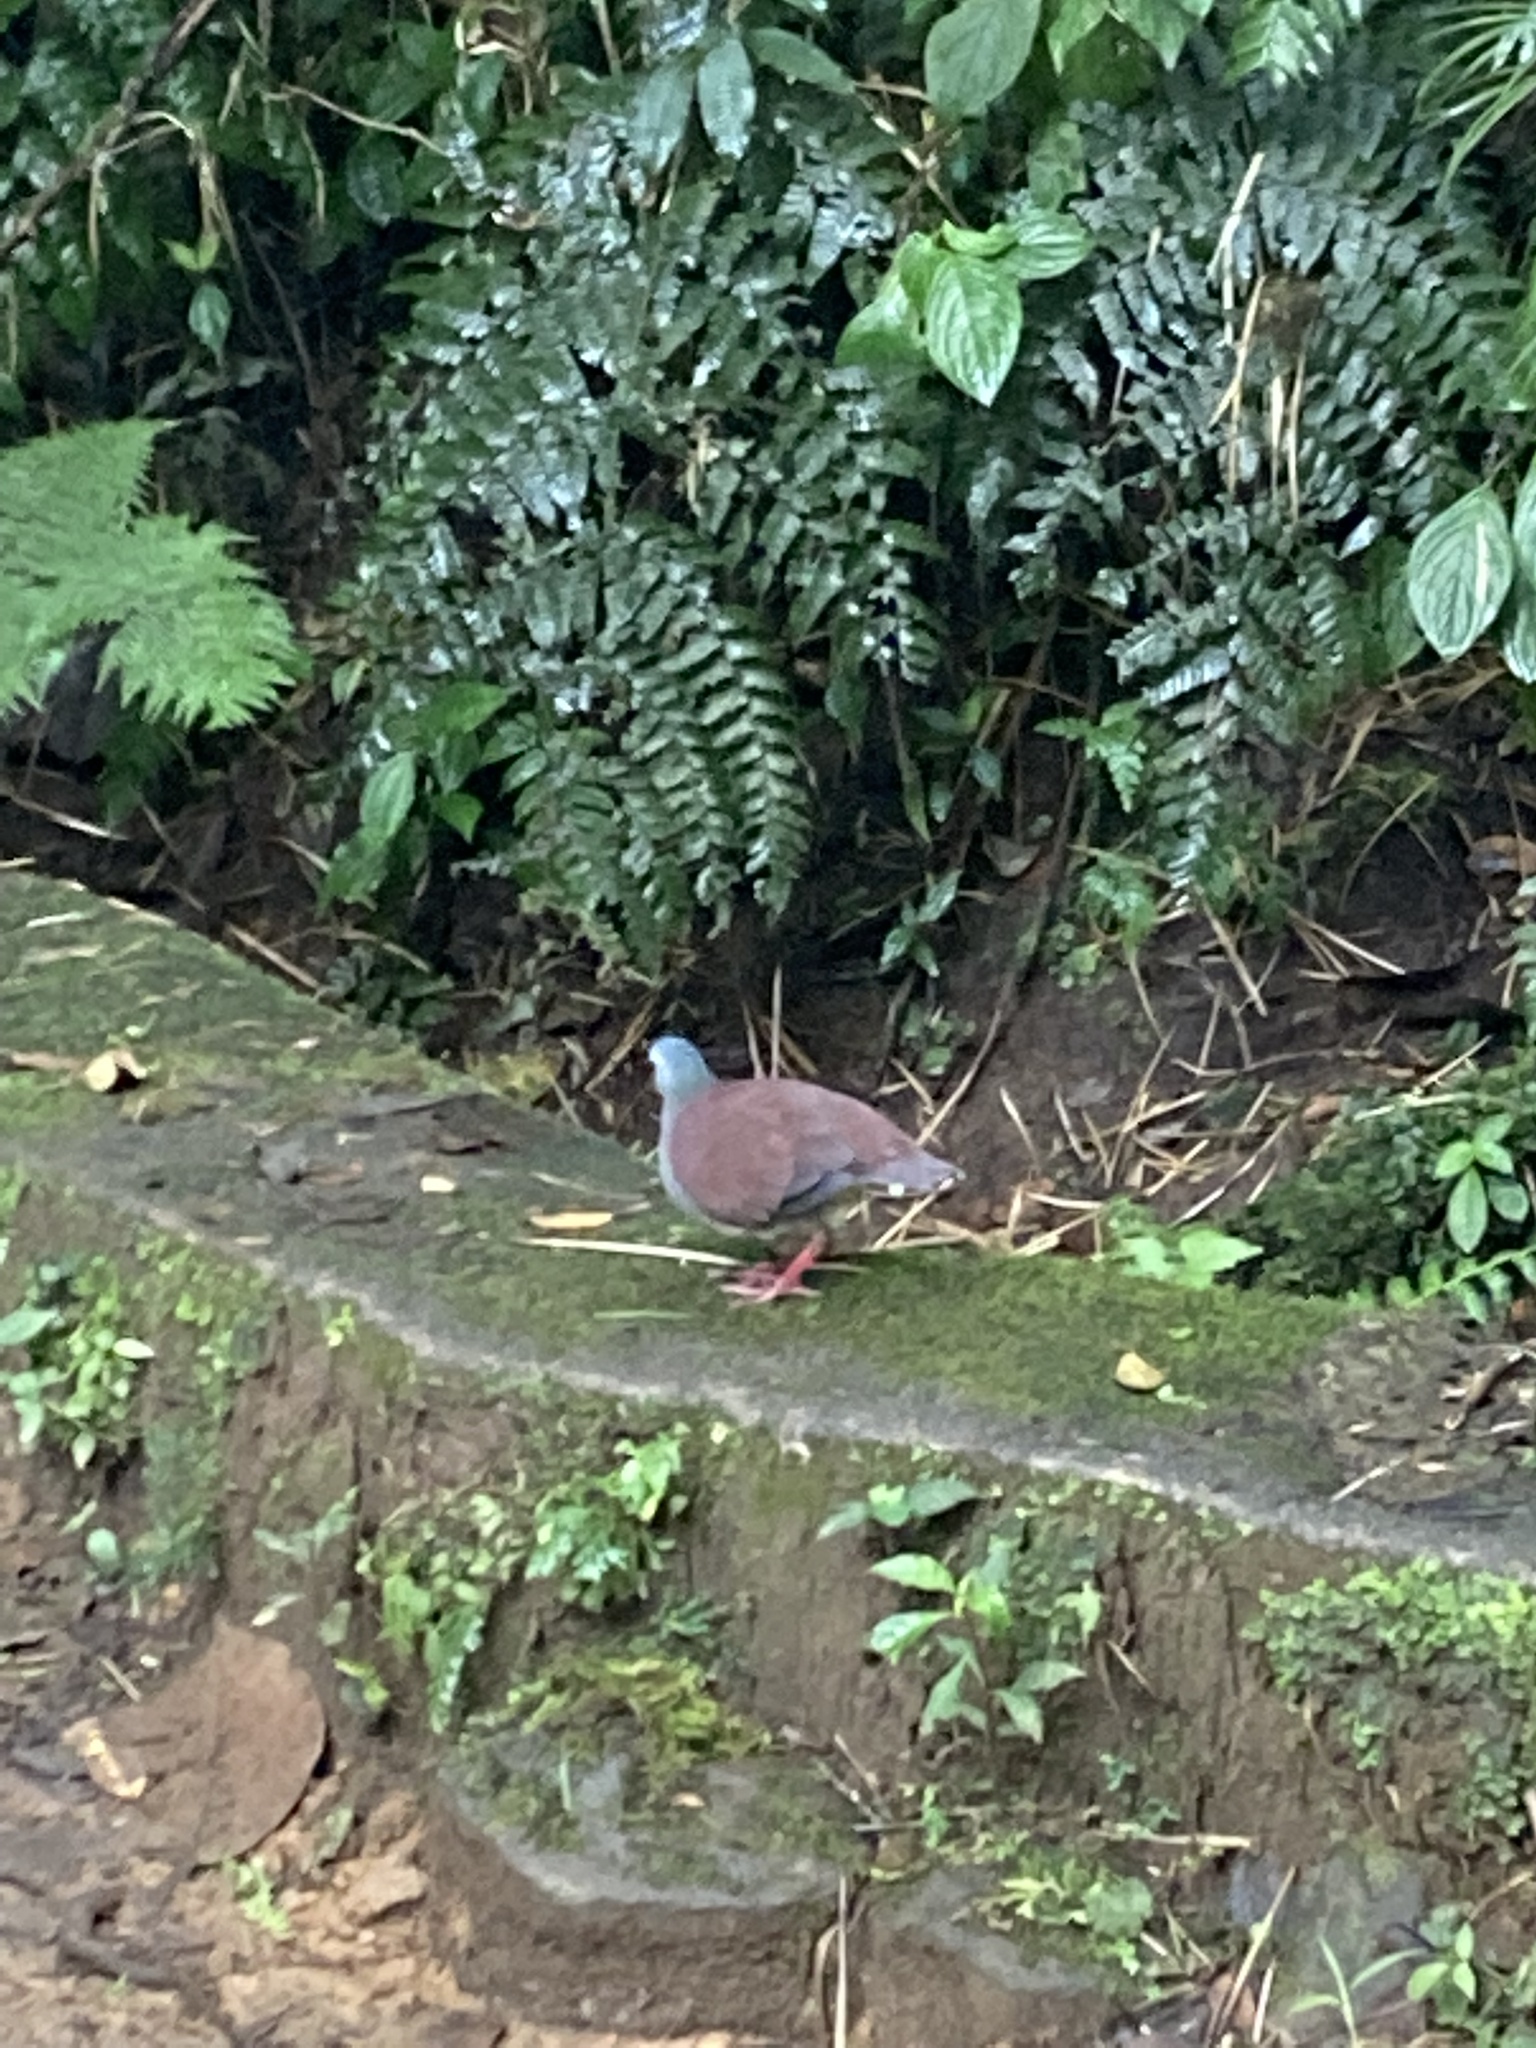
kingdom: Animalia
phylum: Chordata
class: Aves
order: Columbiformes
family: Columbidae
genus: Zentrygon
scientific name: Zentrygon costaricensis
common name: Buff-fronted quail-dove
